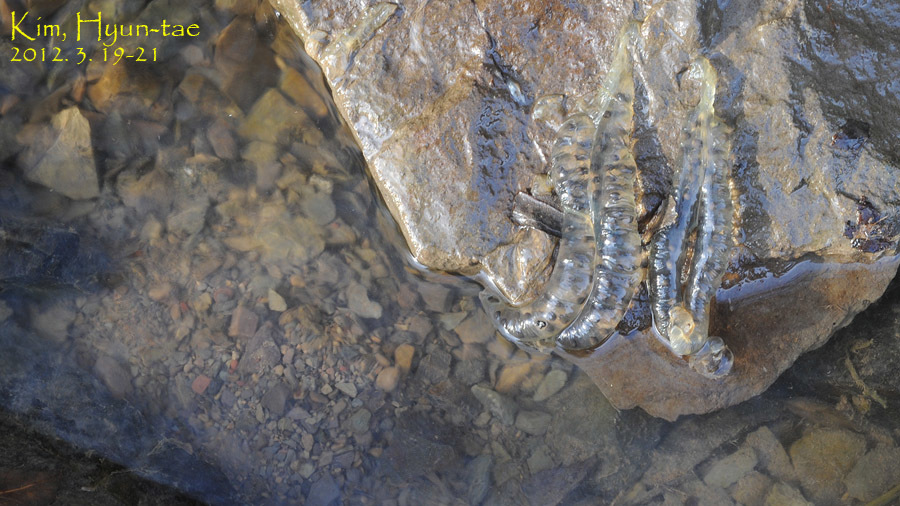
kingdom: Animalia
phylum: Chordata
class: Amphibia
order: Caudata
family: Hynobiidae
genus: Hynobius
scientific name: Hynobius leechii
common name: Gensan salamander
